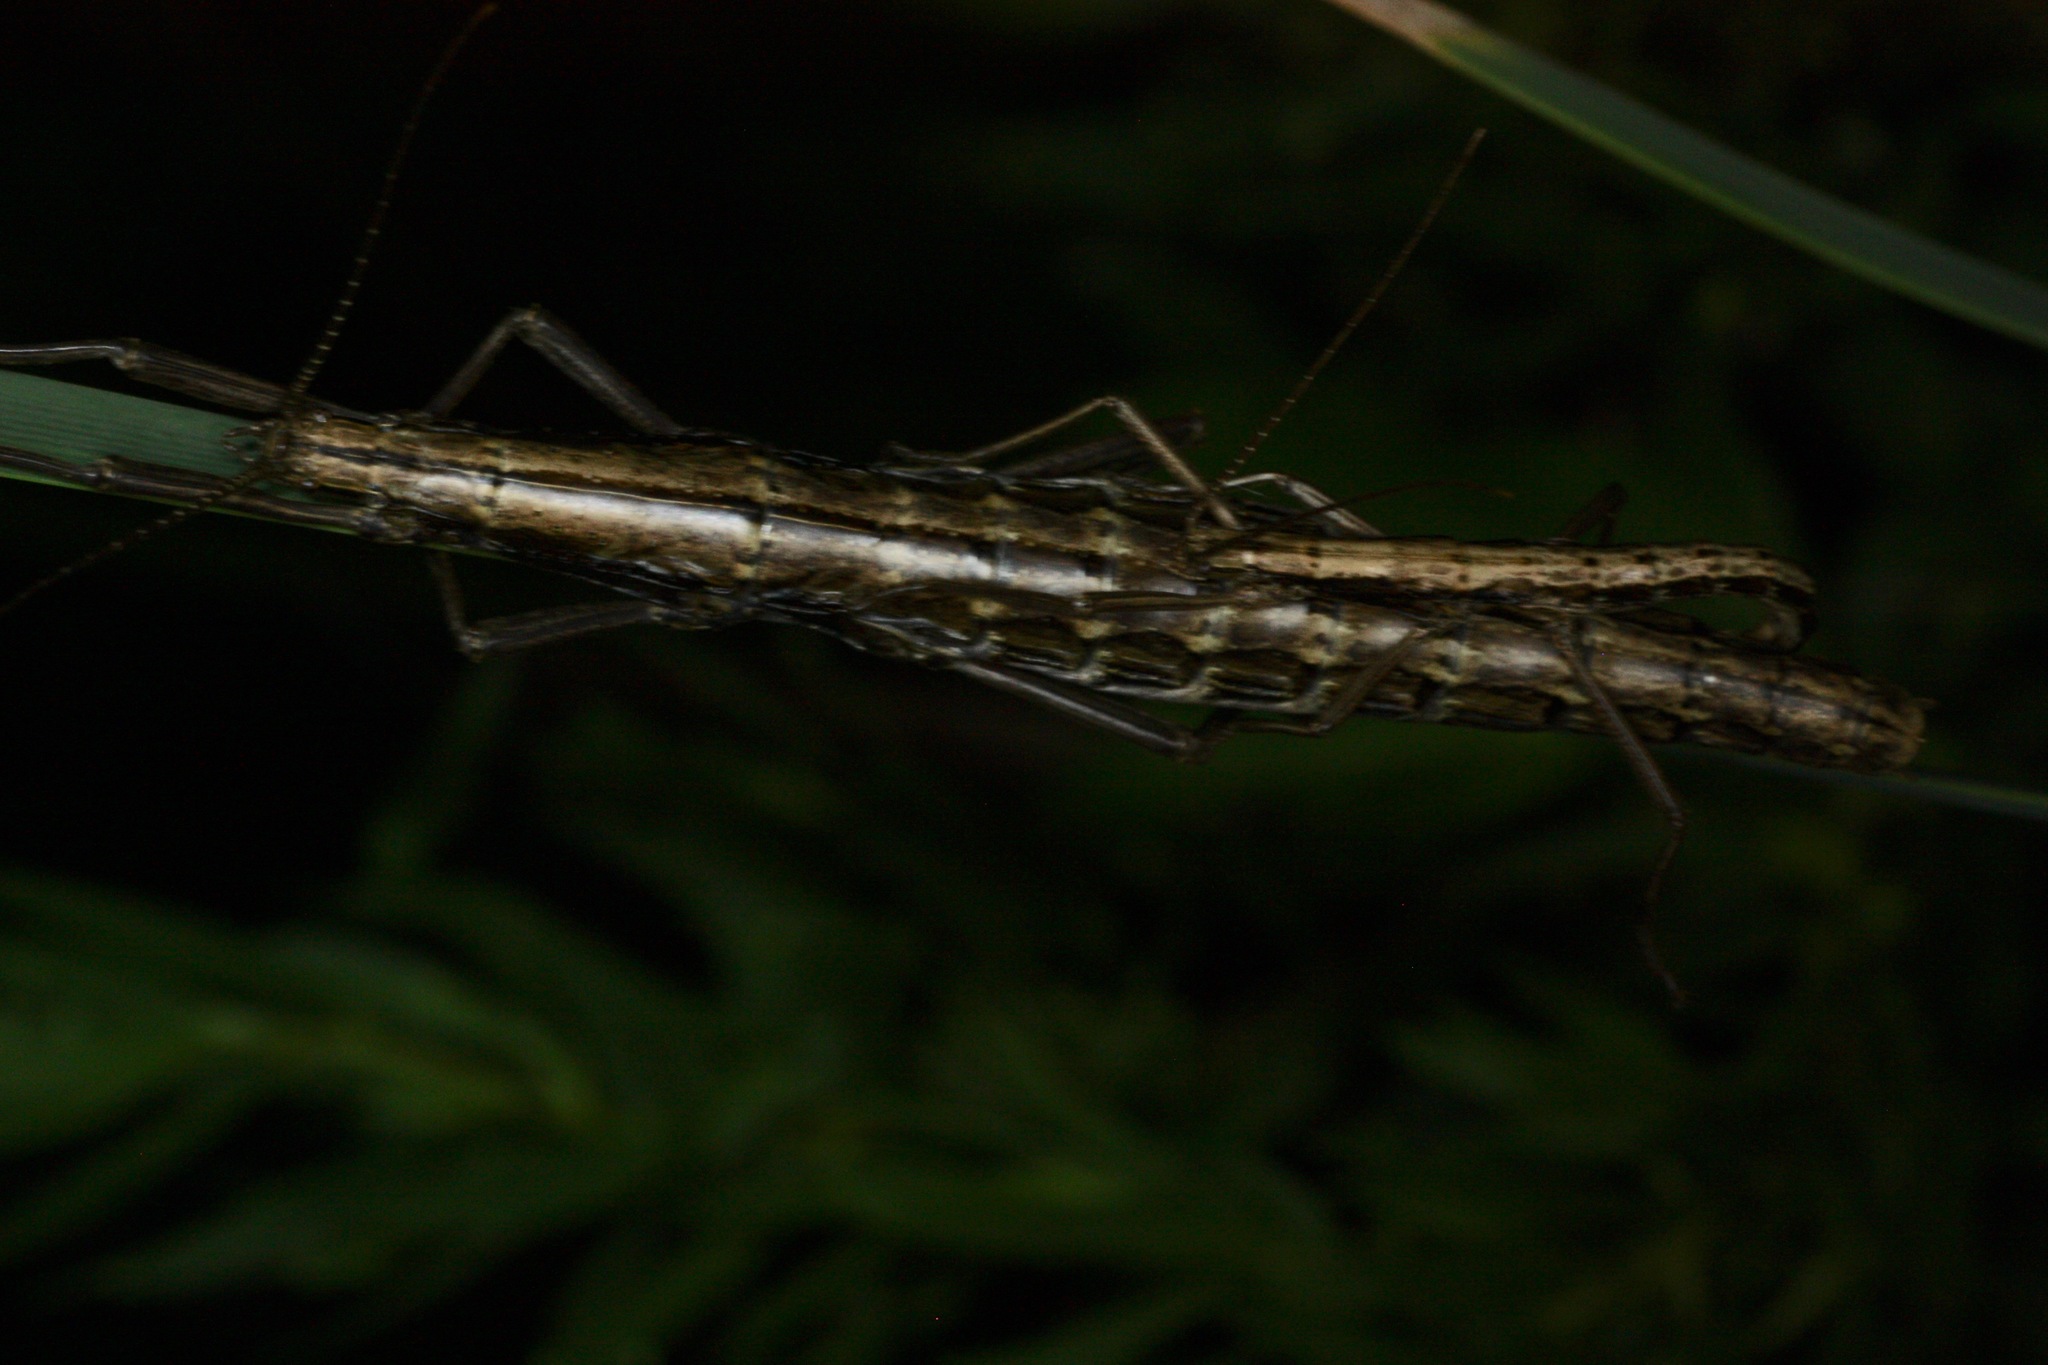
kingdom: Animalia
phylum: Arthropoda
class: Insecta
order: Phasmida
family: Pseudophasmatidae
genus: Anisomorpha
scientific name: Anisomorpha buprestoides
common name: Florida stick insect
